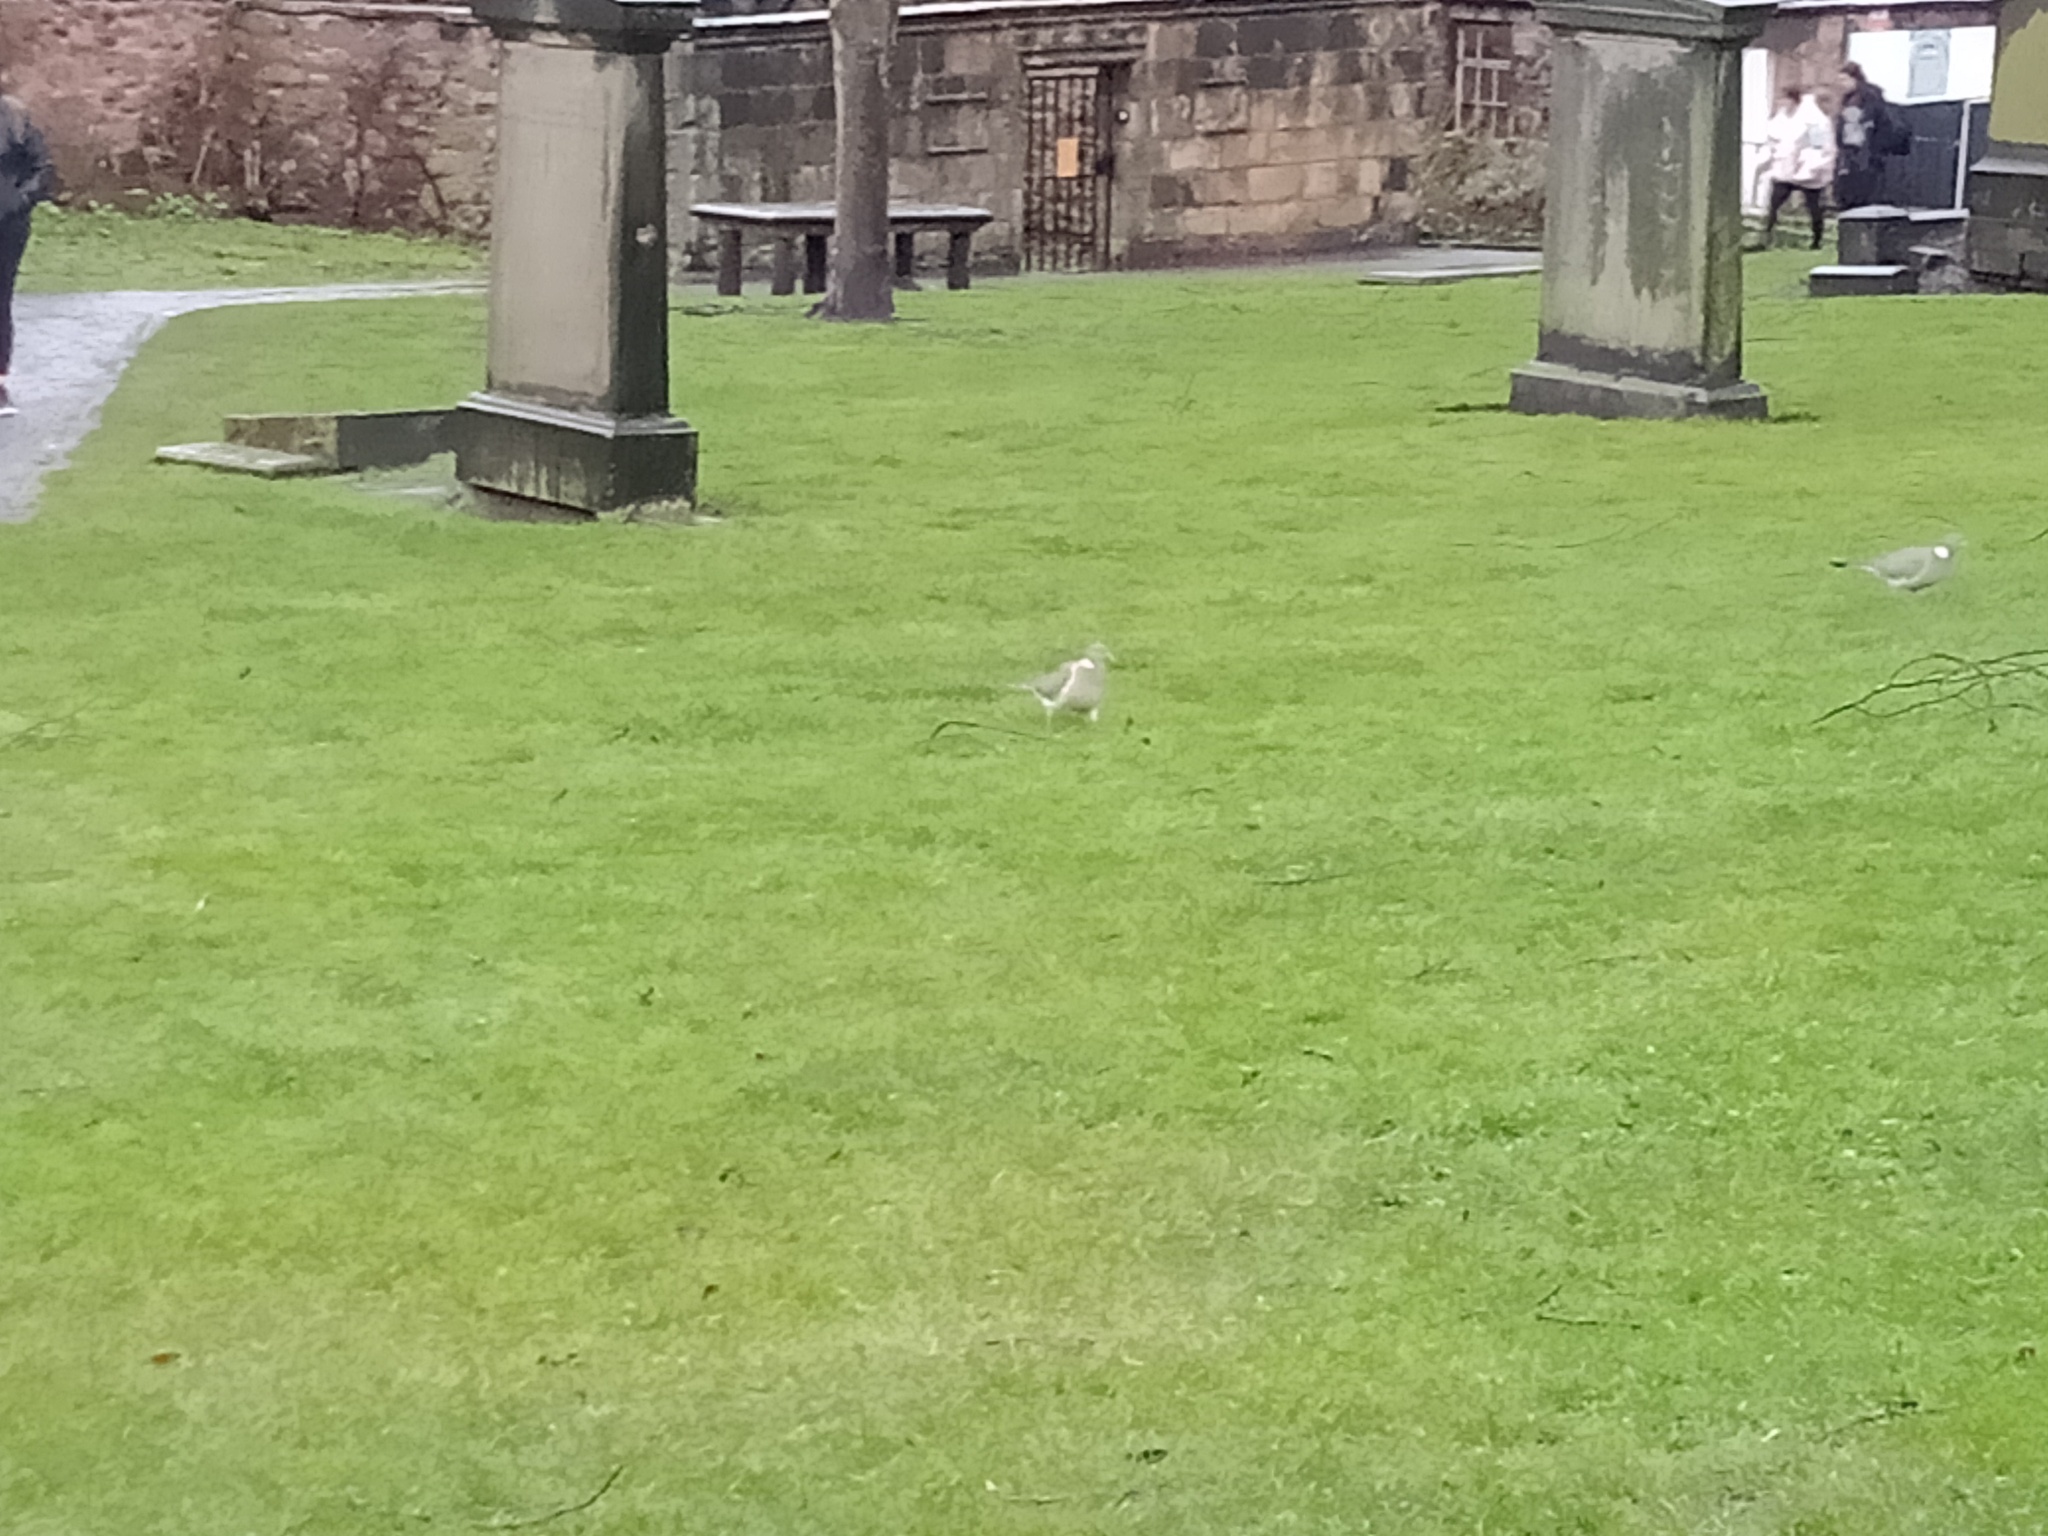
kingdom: Animalia
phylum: Chordata
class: Aves
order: Columbiformes
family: Columbidae
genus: Columba
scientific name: Columba palumbus
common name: Common wood pigeon
